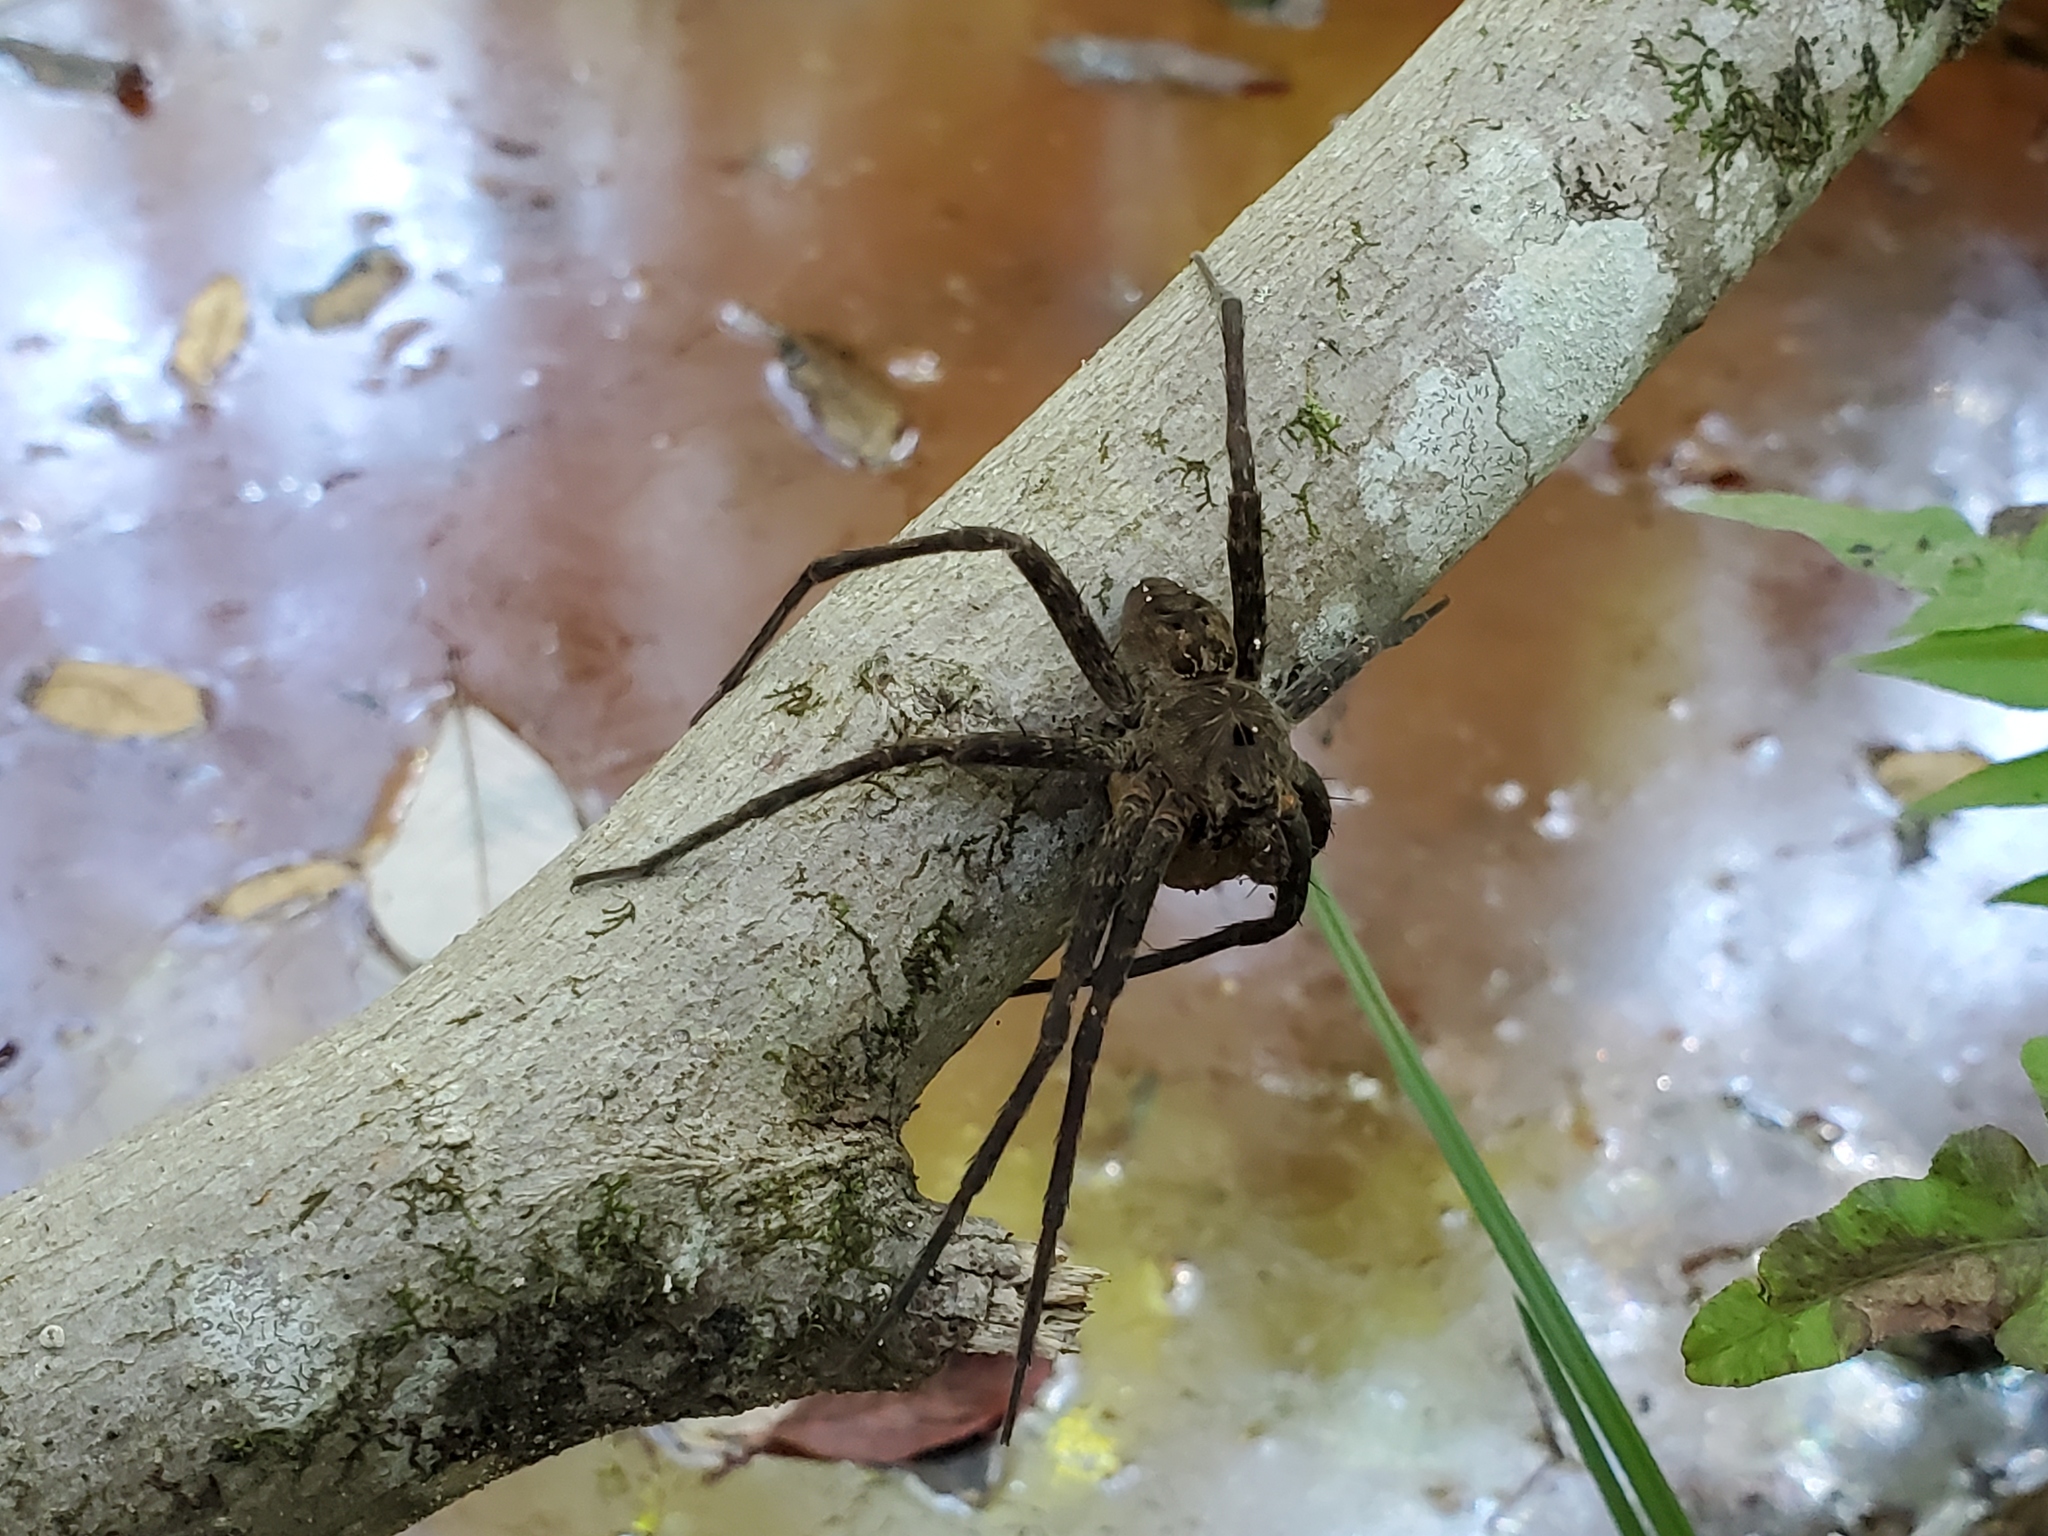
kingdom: Animalia
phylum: Arthropoda
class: Arachnida
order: Araneae
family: Pisauridae
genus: Dolomedes
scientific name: Dolomedes vittatus
